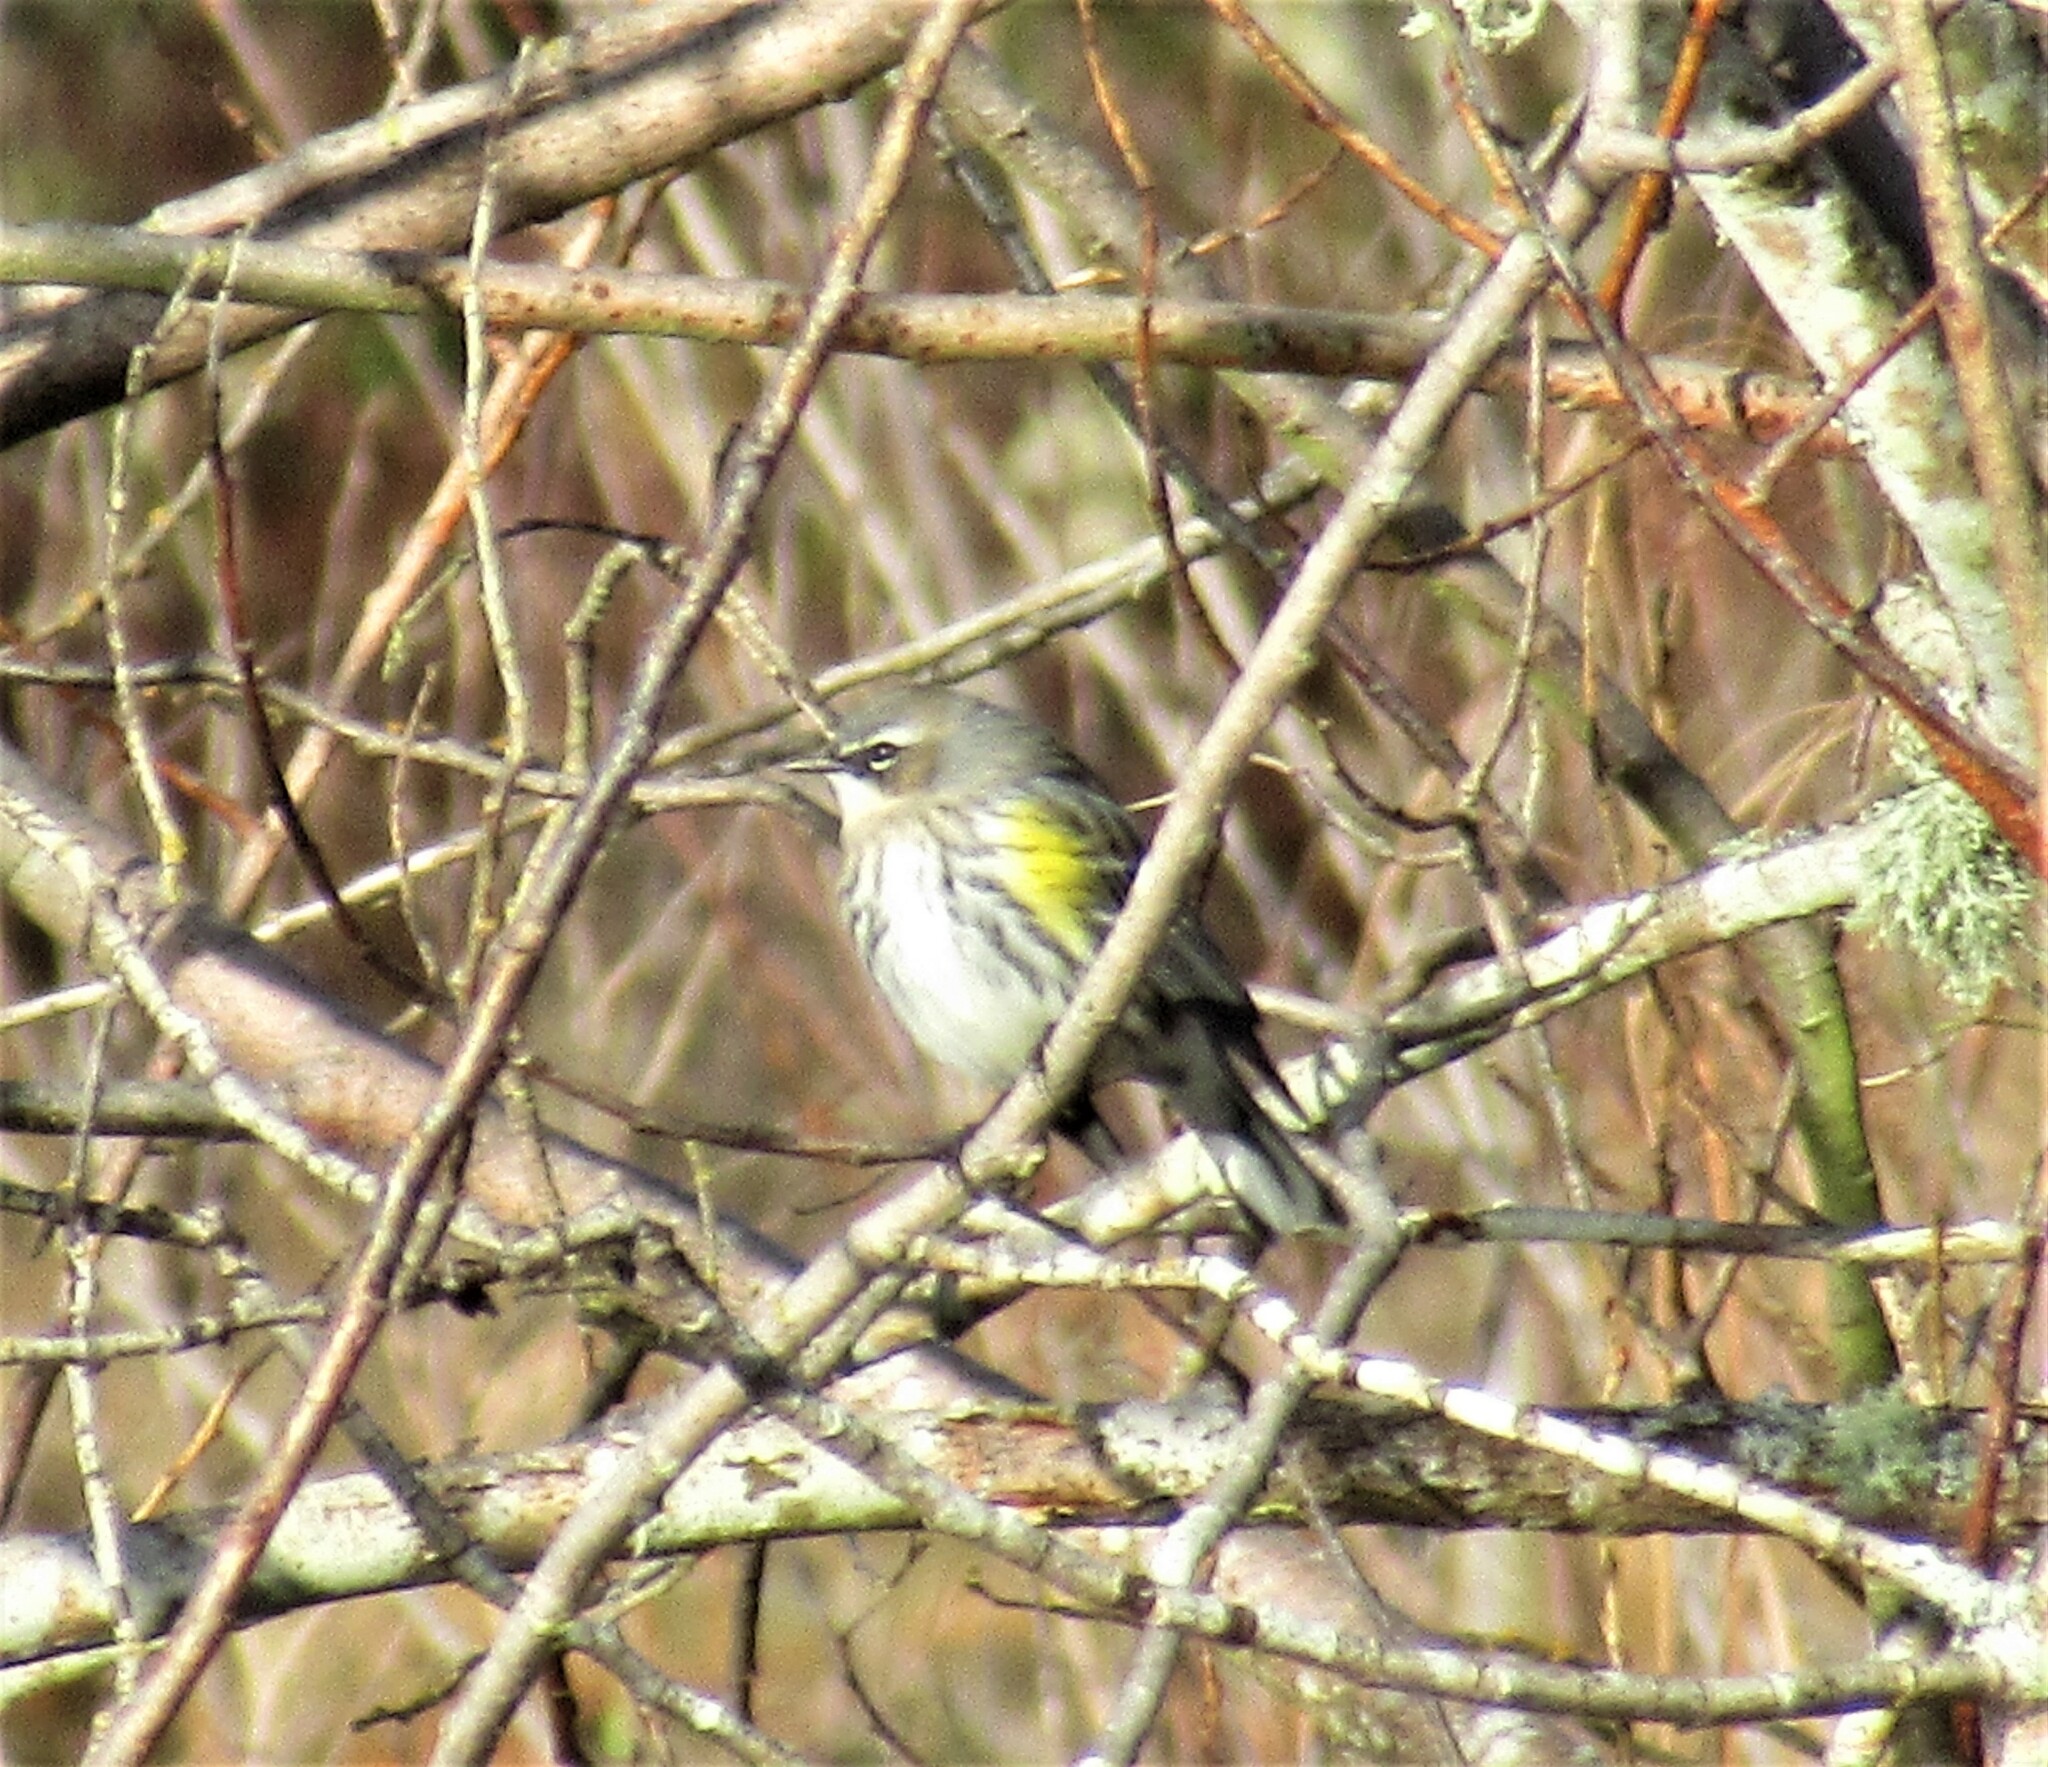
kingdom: Animalia
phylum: Chordata
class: Aves
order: Passeriformes
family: Parulidae
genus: Setophaga
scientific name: Setophaga coronata
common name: Myrtle warbler
